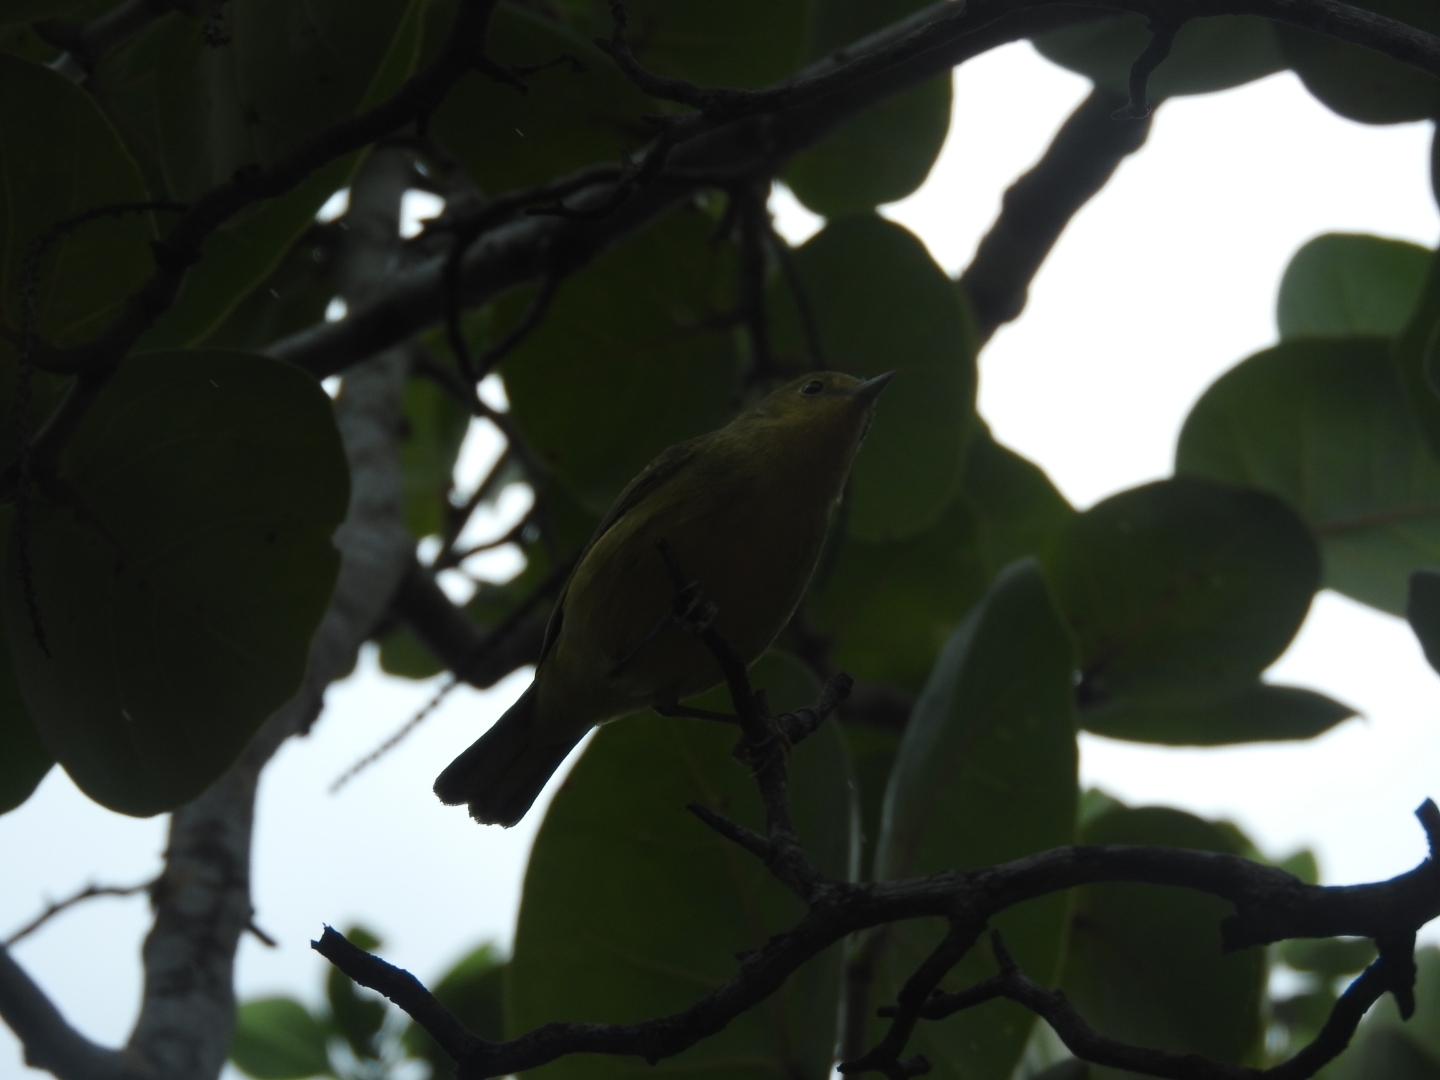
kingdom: Animalia
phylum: Chordata
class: Aves
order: Passeriformes
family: Parulidae
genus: Setophaga
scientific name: Setophaga petechia
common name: Yellow warbler
